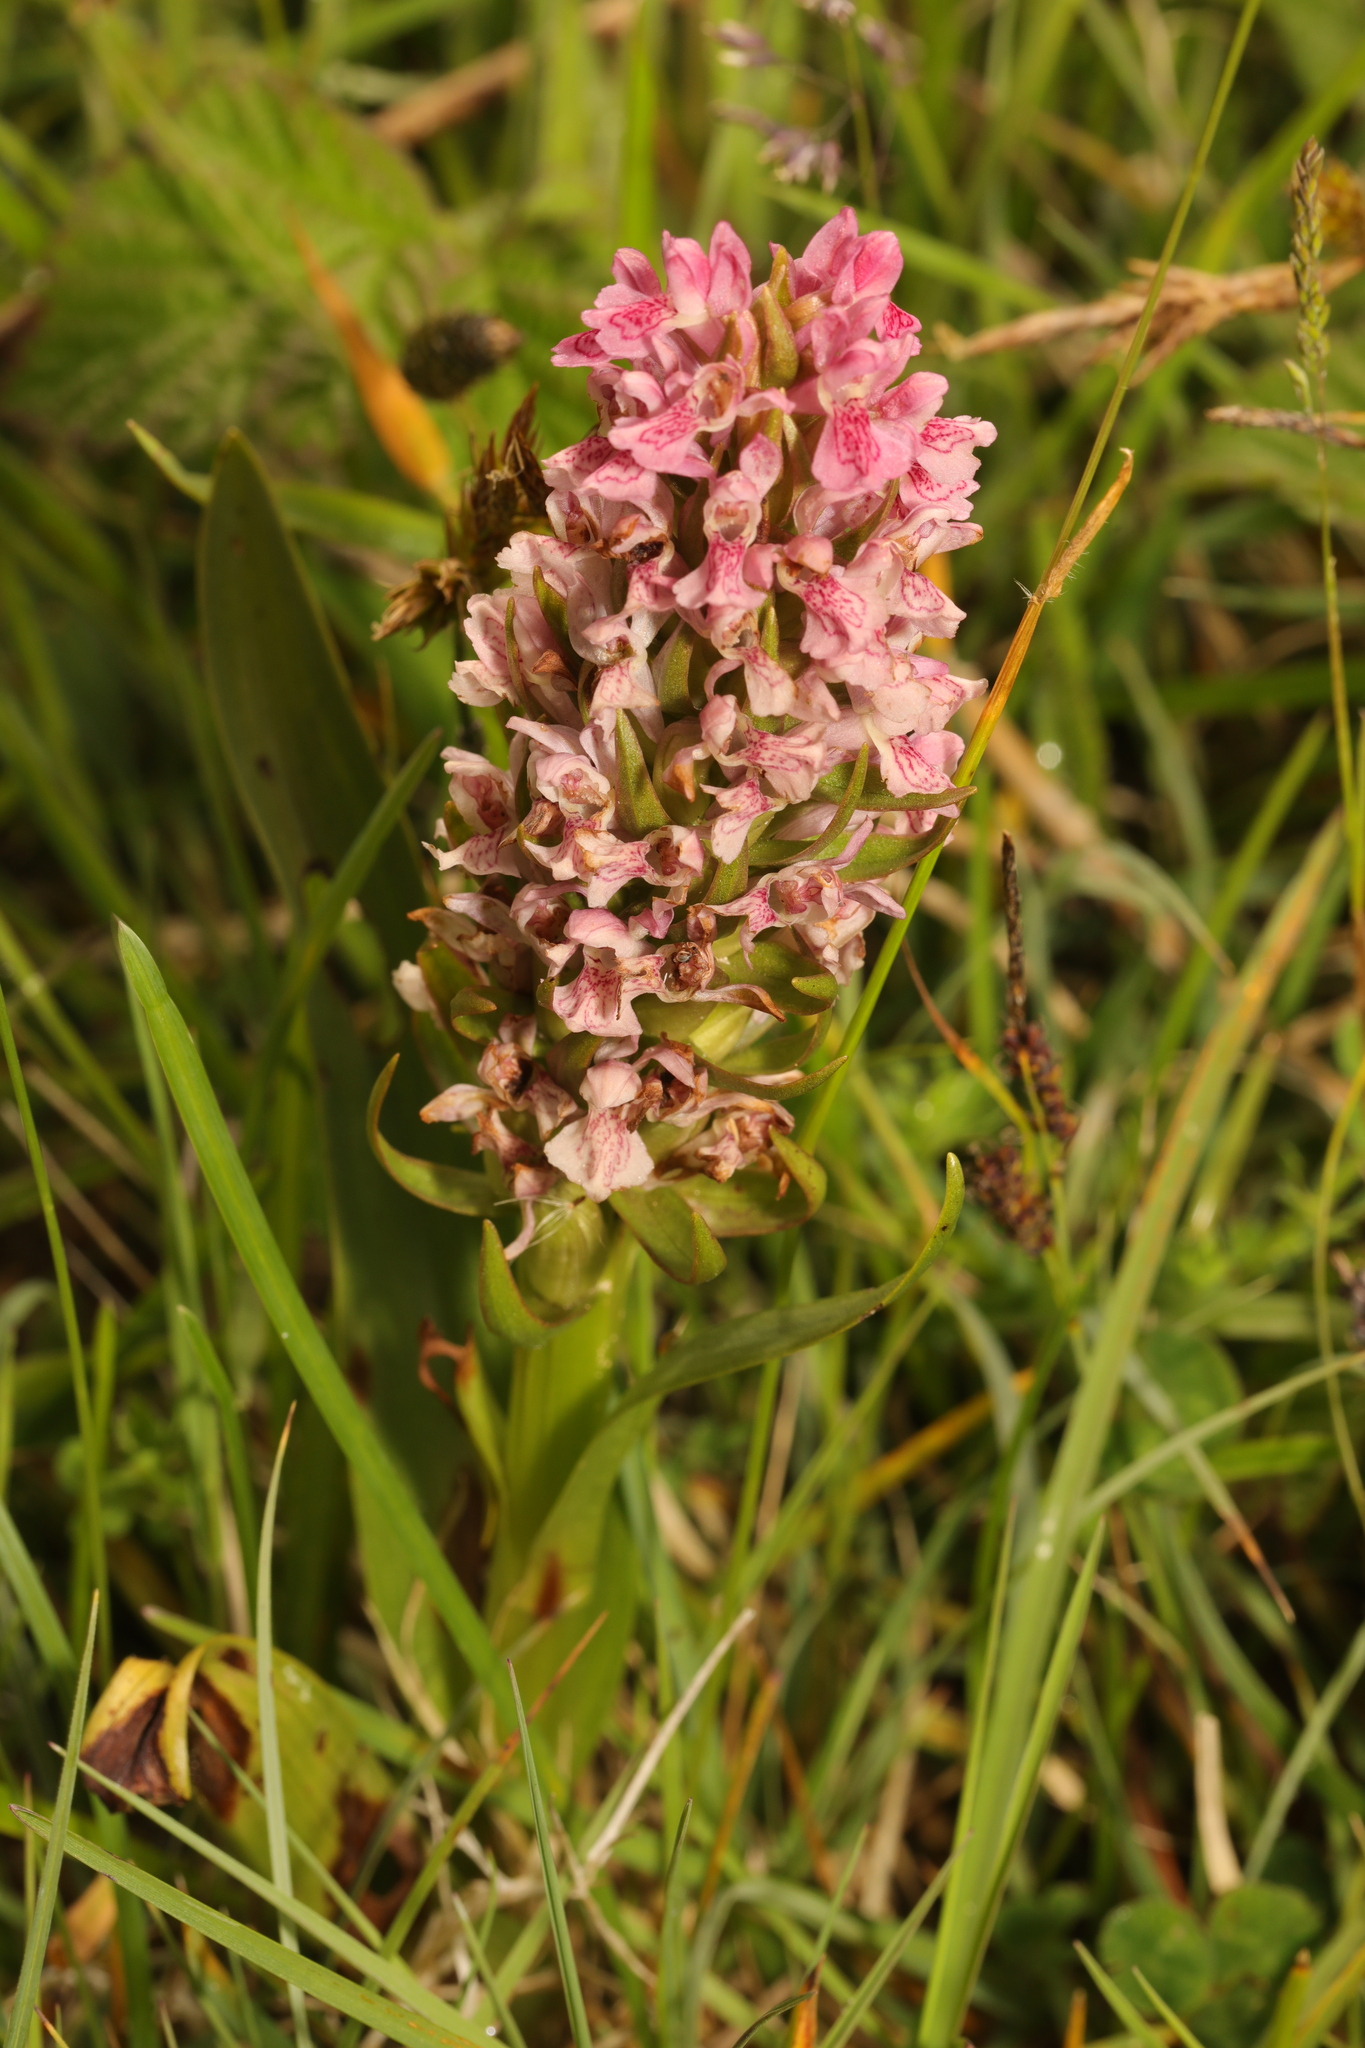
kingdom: Plantae
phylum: Tracheophyta
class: Liliopsida
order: Asparagales
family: Orchidaceae
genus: Dactylorhiza
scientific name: Dactylorhiza incarnata
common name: Early marsh-orchid
